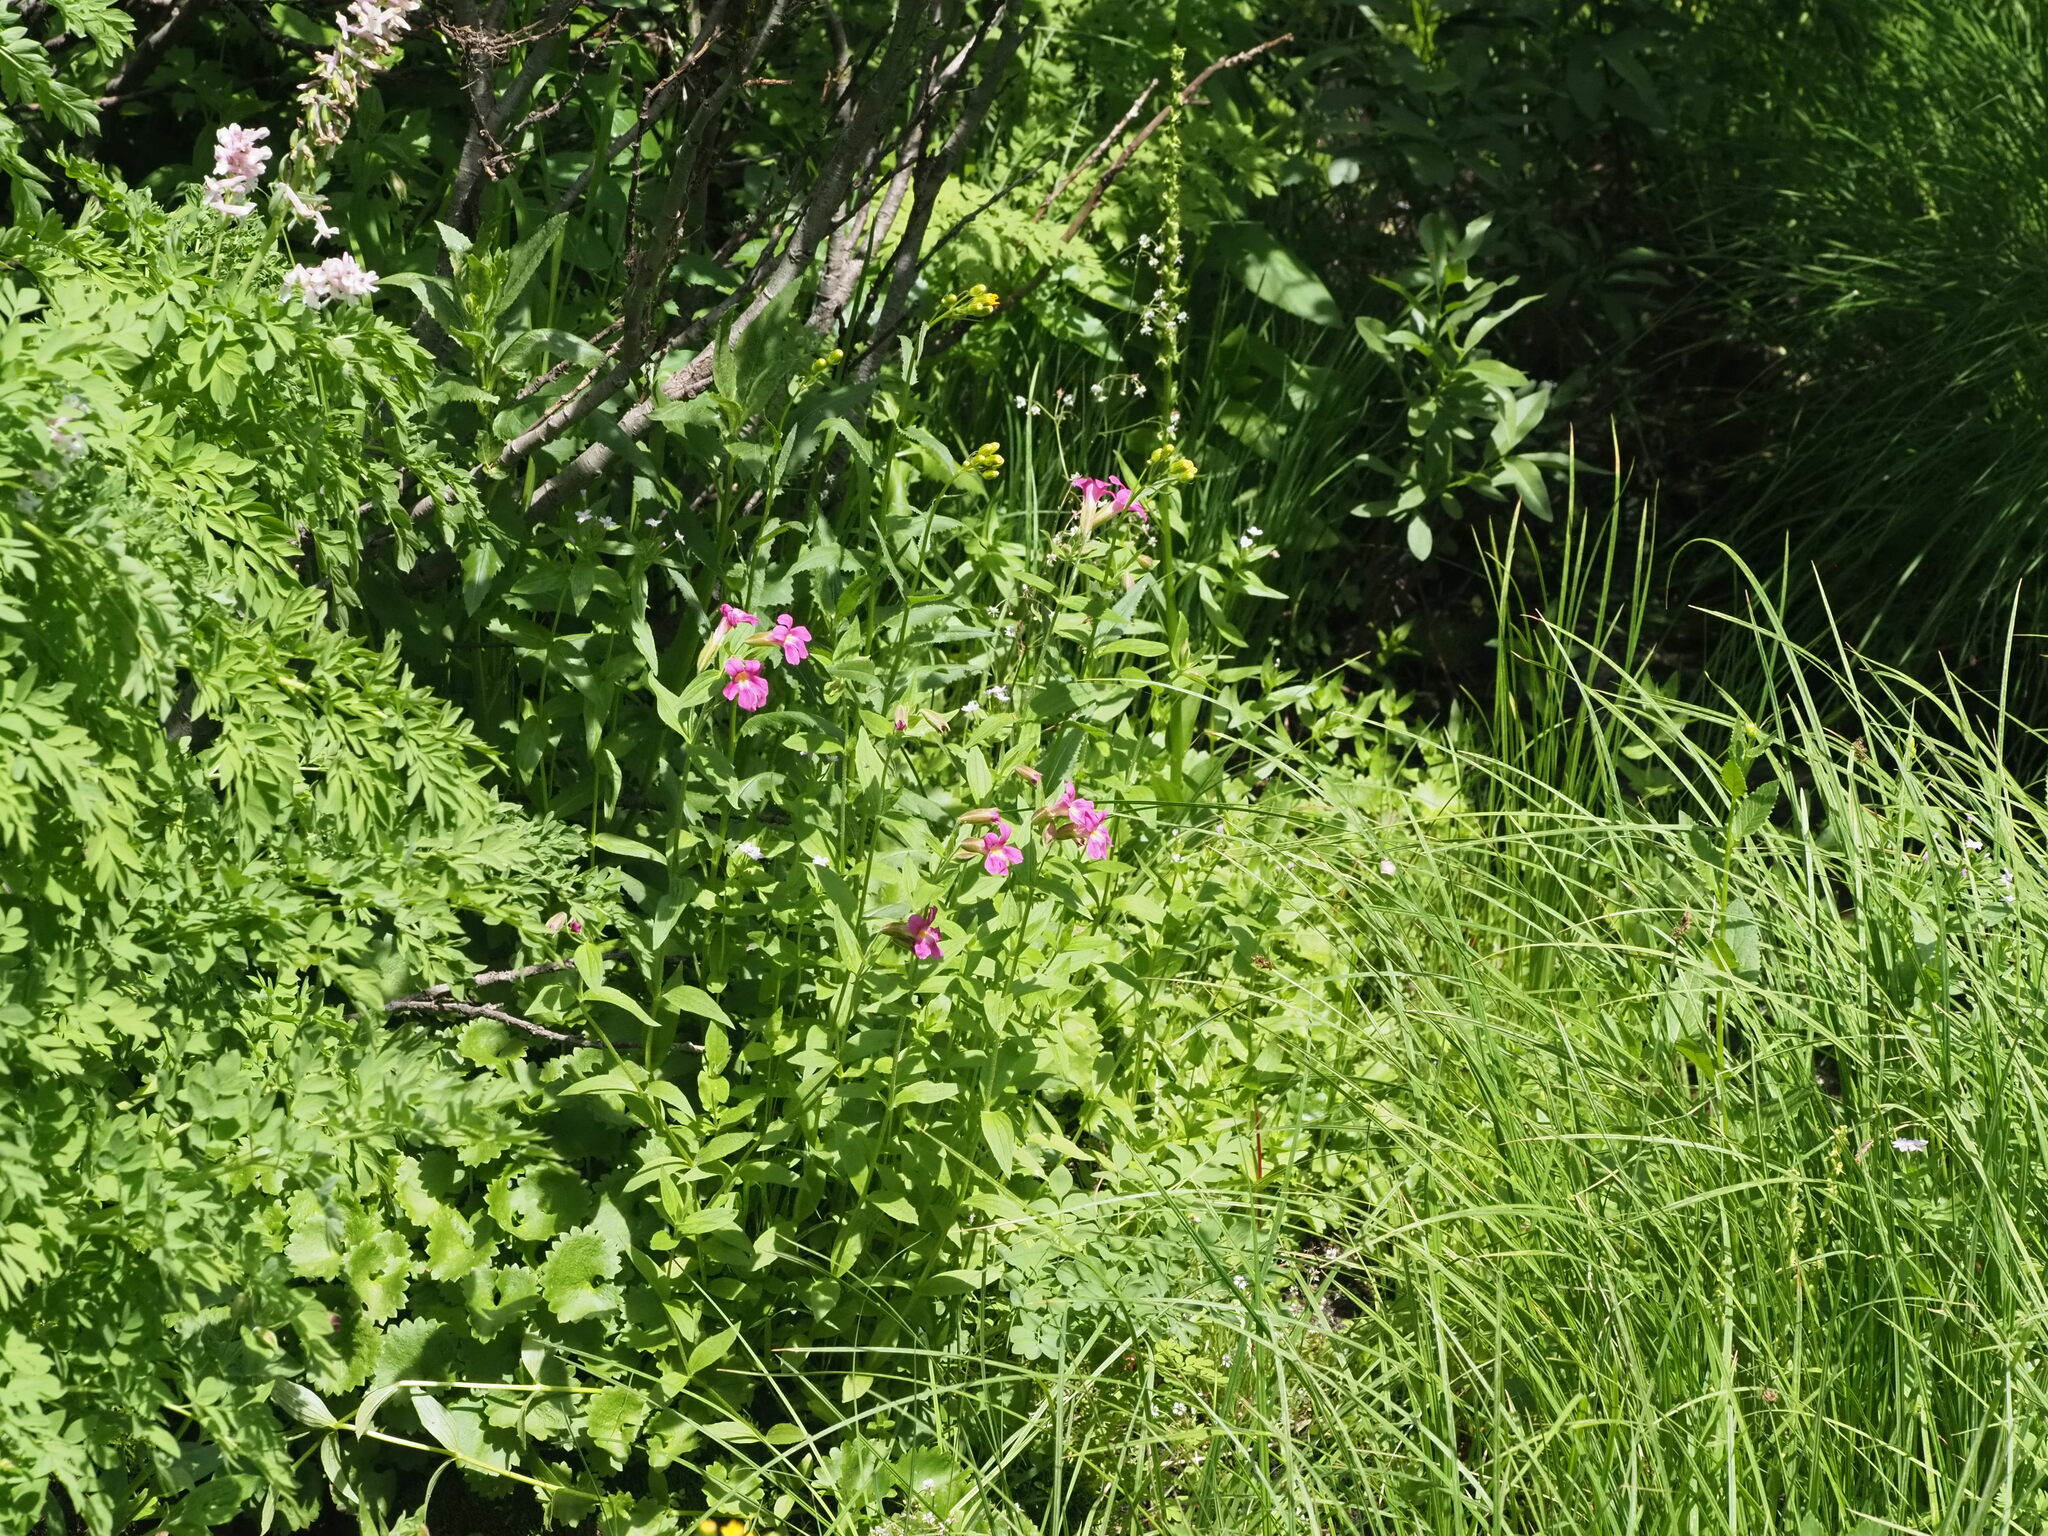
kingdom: Plantae
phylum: Tracheophyta
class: Magnoliopsida
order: Lamiales
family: Phrymaceae
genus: Erythranthe
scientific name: Erythranthe lewisii
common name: Lewis's monkey-flower
